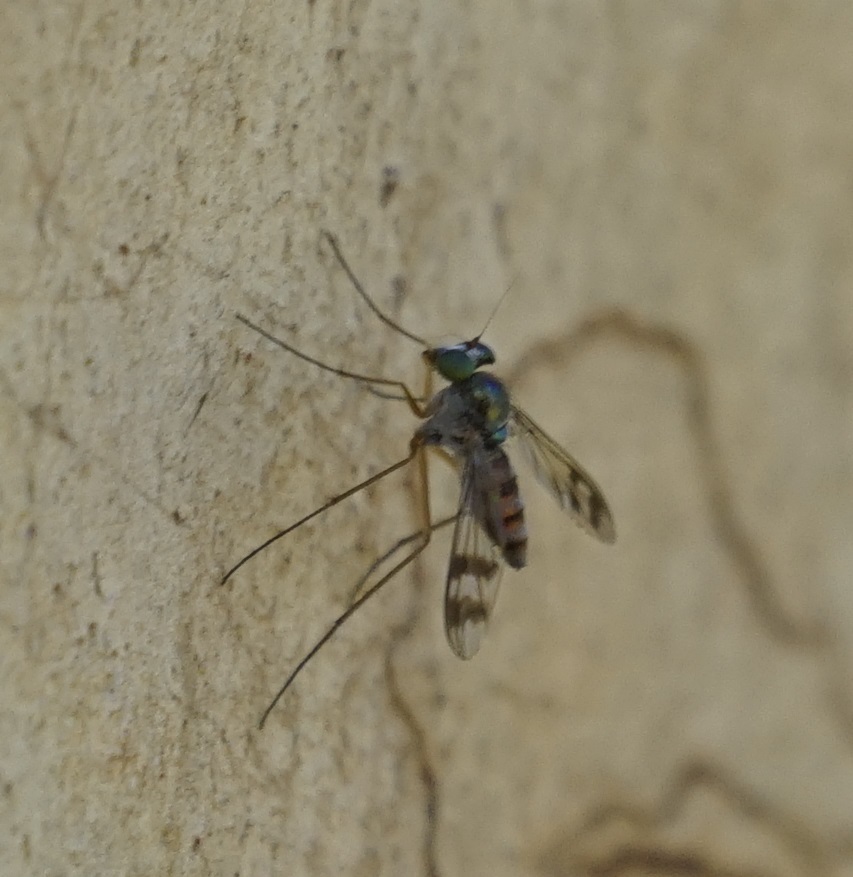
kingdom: Animalia
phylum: Arthropoda
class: Insecta
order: Diptera
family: Dolichopodidae
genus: Heteropsilopus
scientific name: Heteropsilopus squamifer
